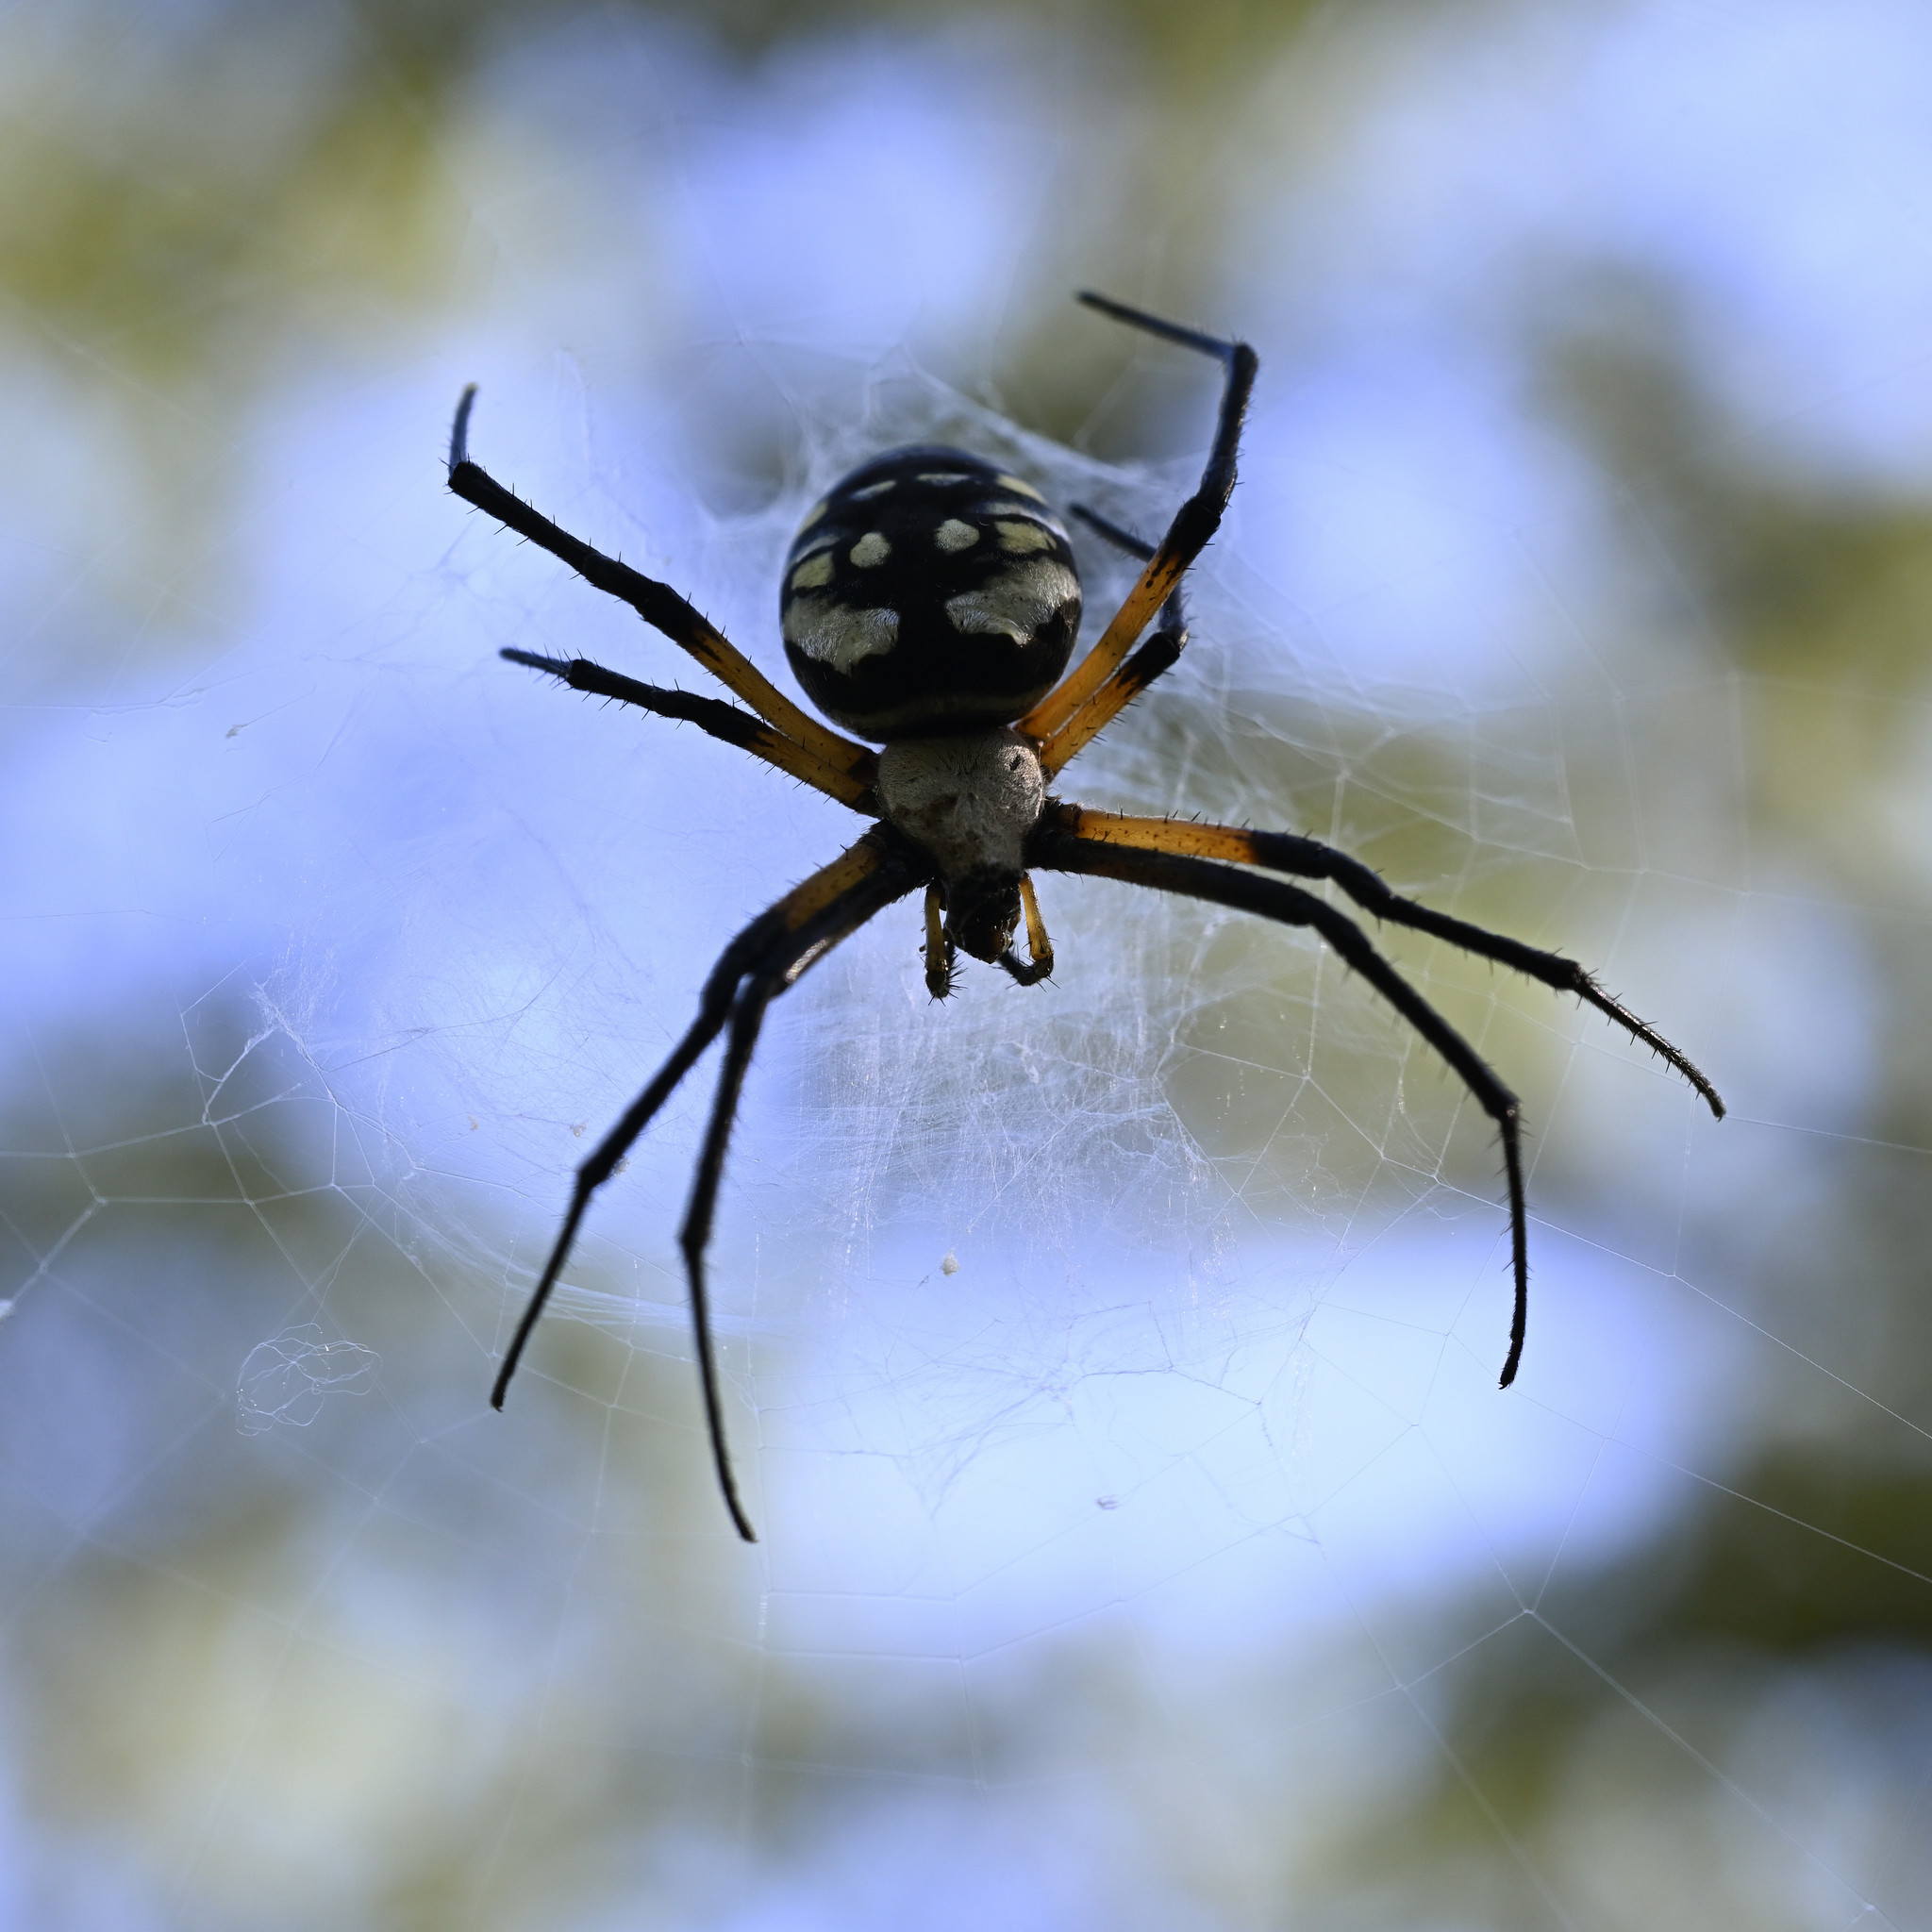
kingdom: Animalia
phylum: Arthropoda
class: Arachnida
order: Araneae
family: Araneidae
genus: Argiope
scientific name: Argiope aurantia
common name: Orb weavers
